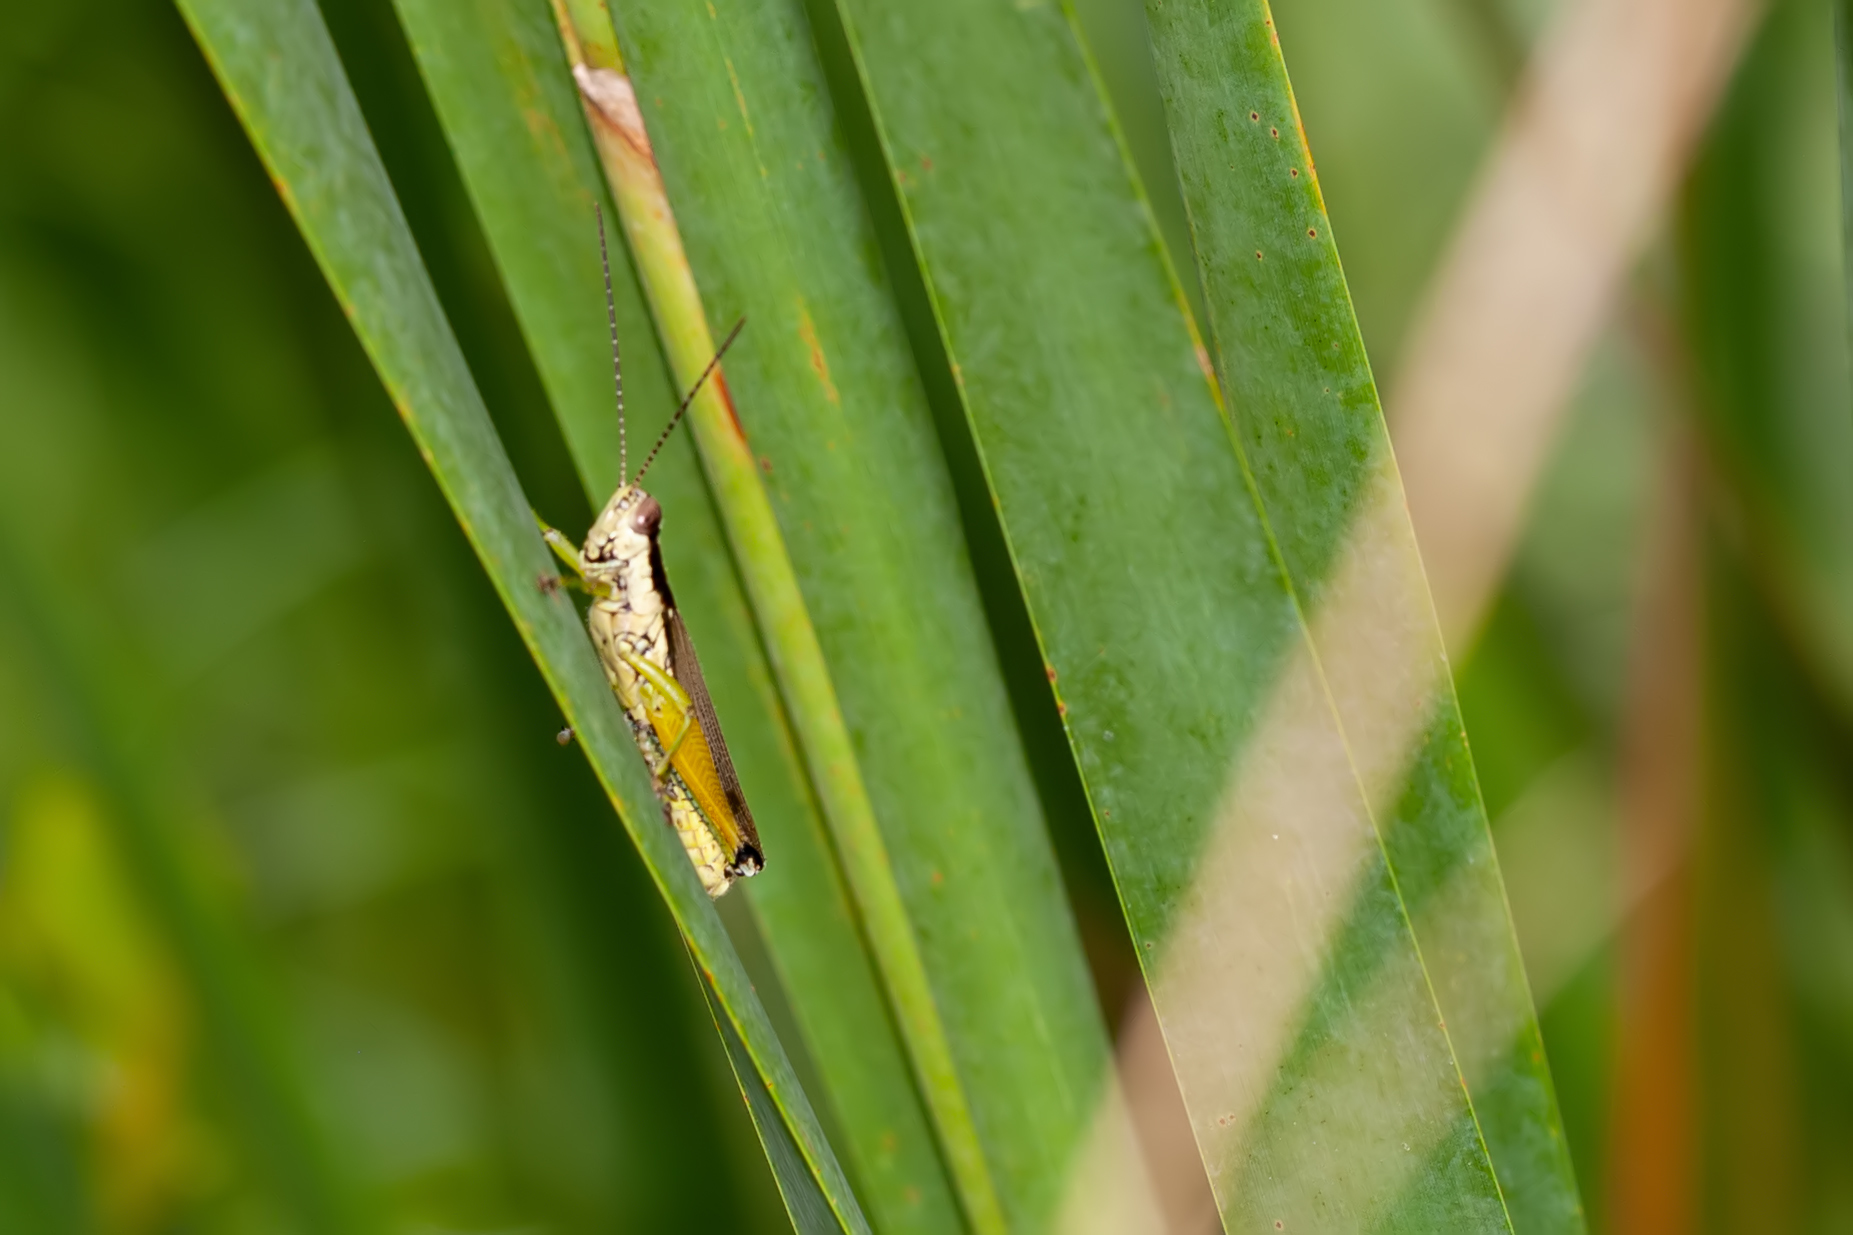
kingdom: Animalia
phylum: Arthropoda
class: Insecta
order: Orthoptera
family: Acrididae
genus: Paroxya
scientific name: Paroxya atlantica
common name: Atlantic grasshopper
